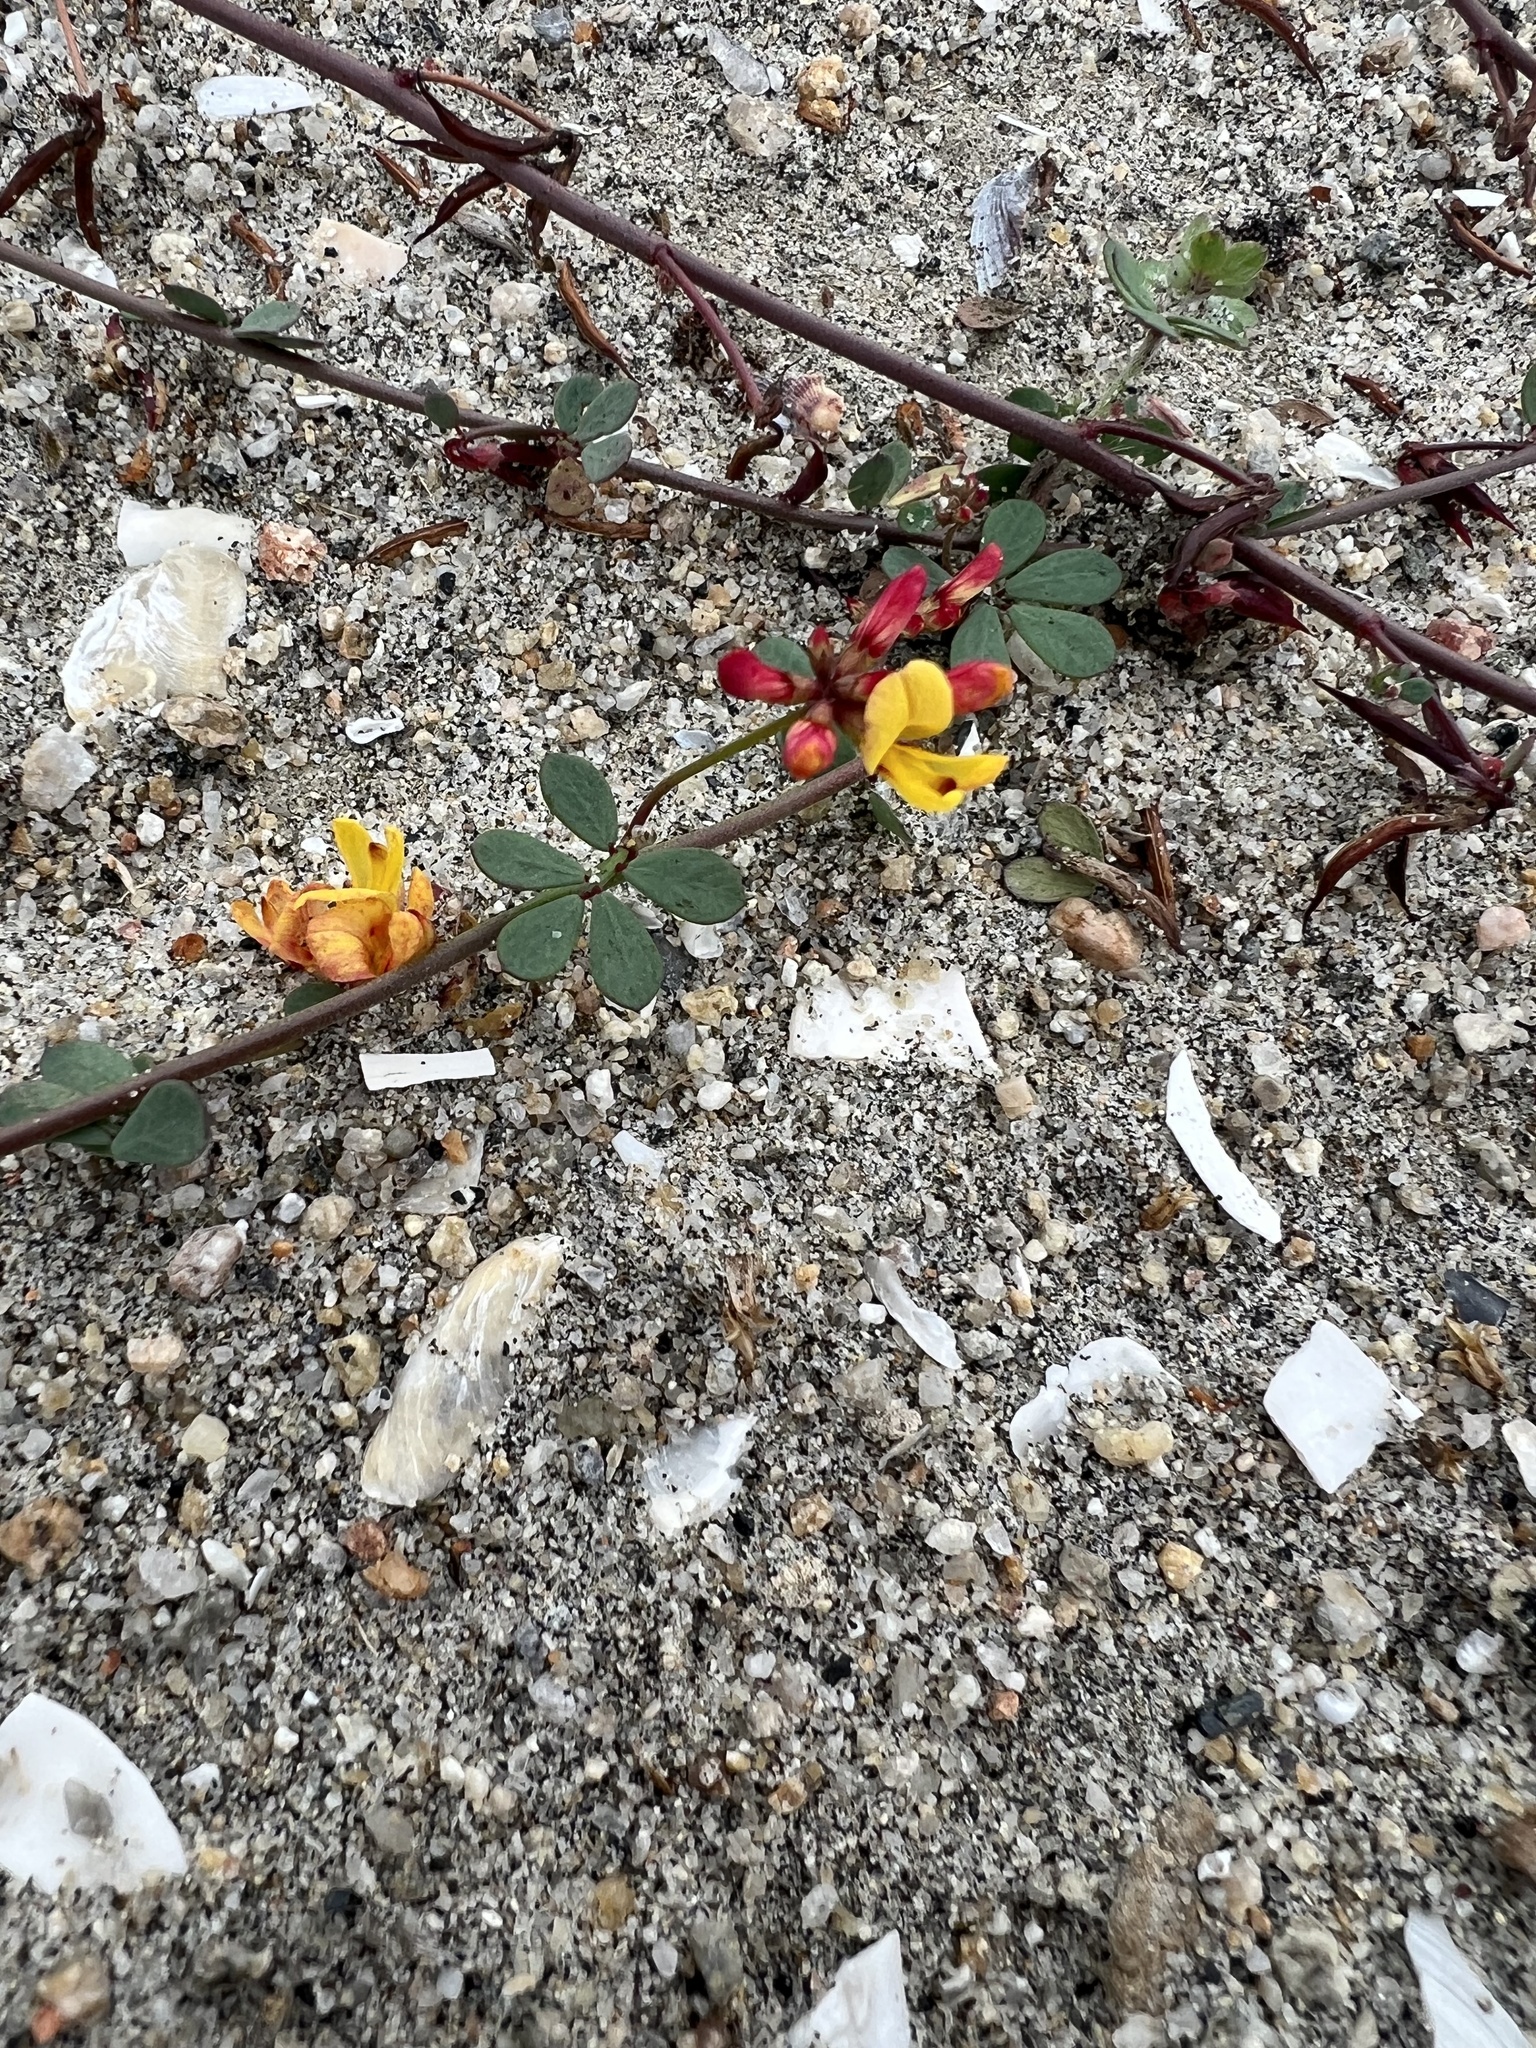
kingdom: Plantae
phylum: Tracheophyta
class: Magnoliopsida
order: Fabales
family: Fabaceae
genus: Acmispon
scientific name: Acmispon prostratus
